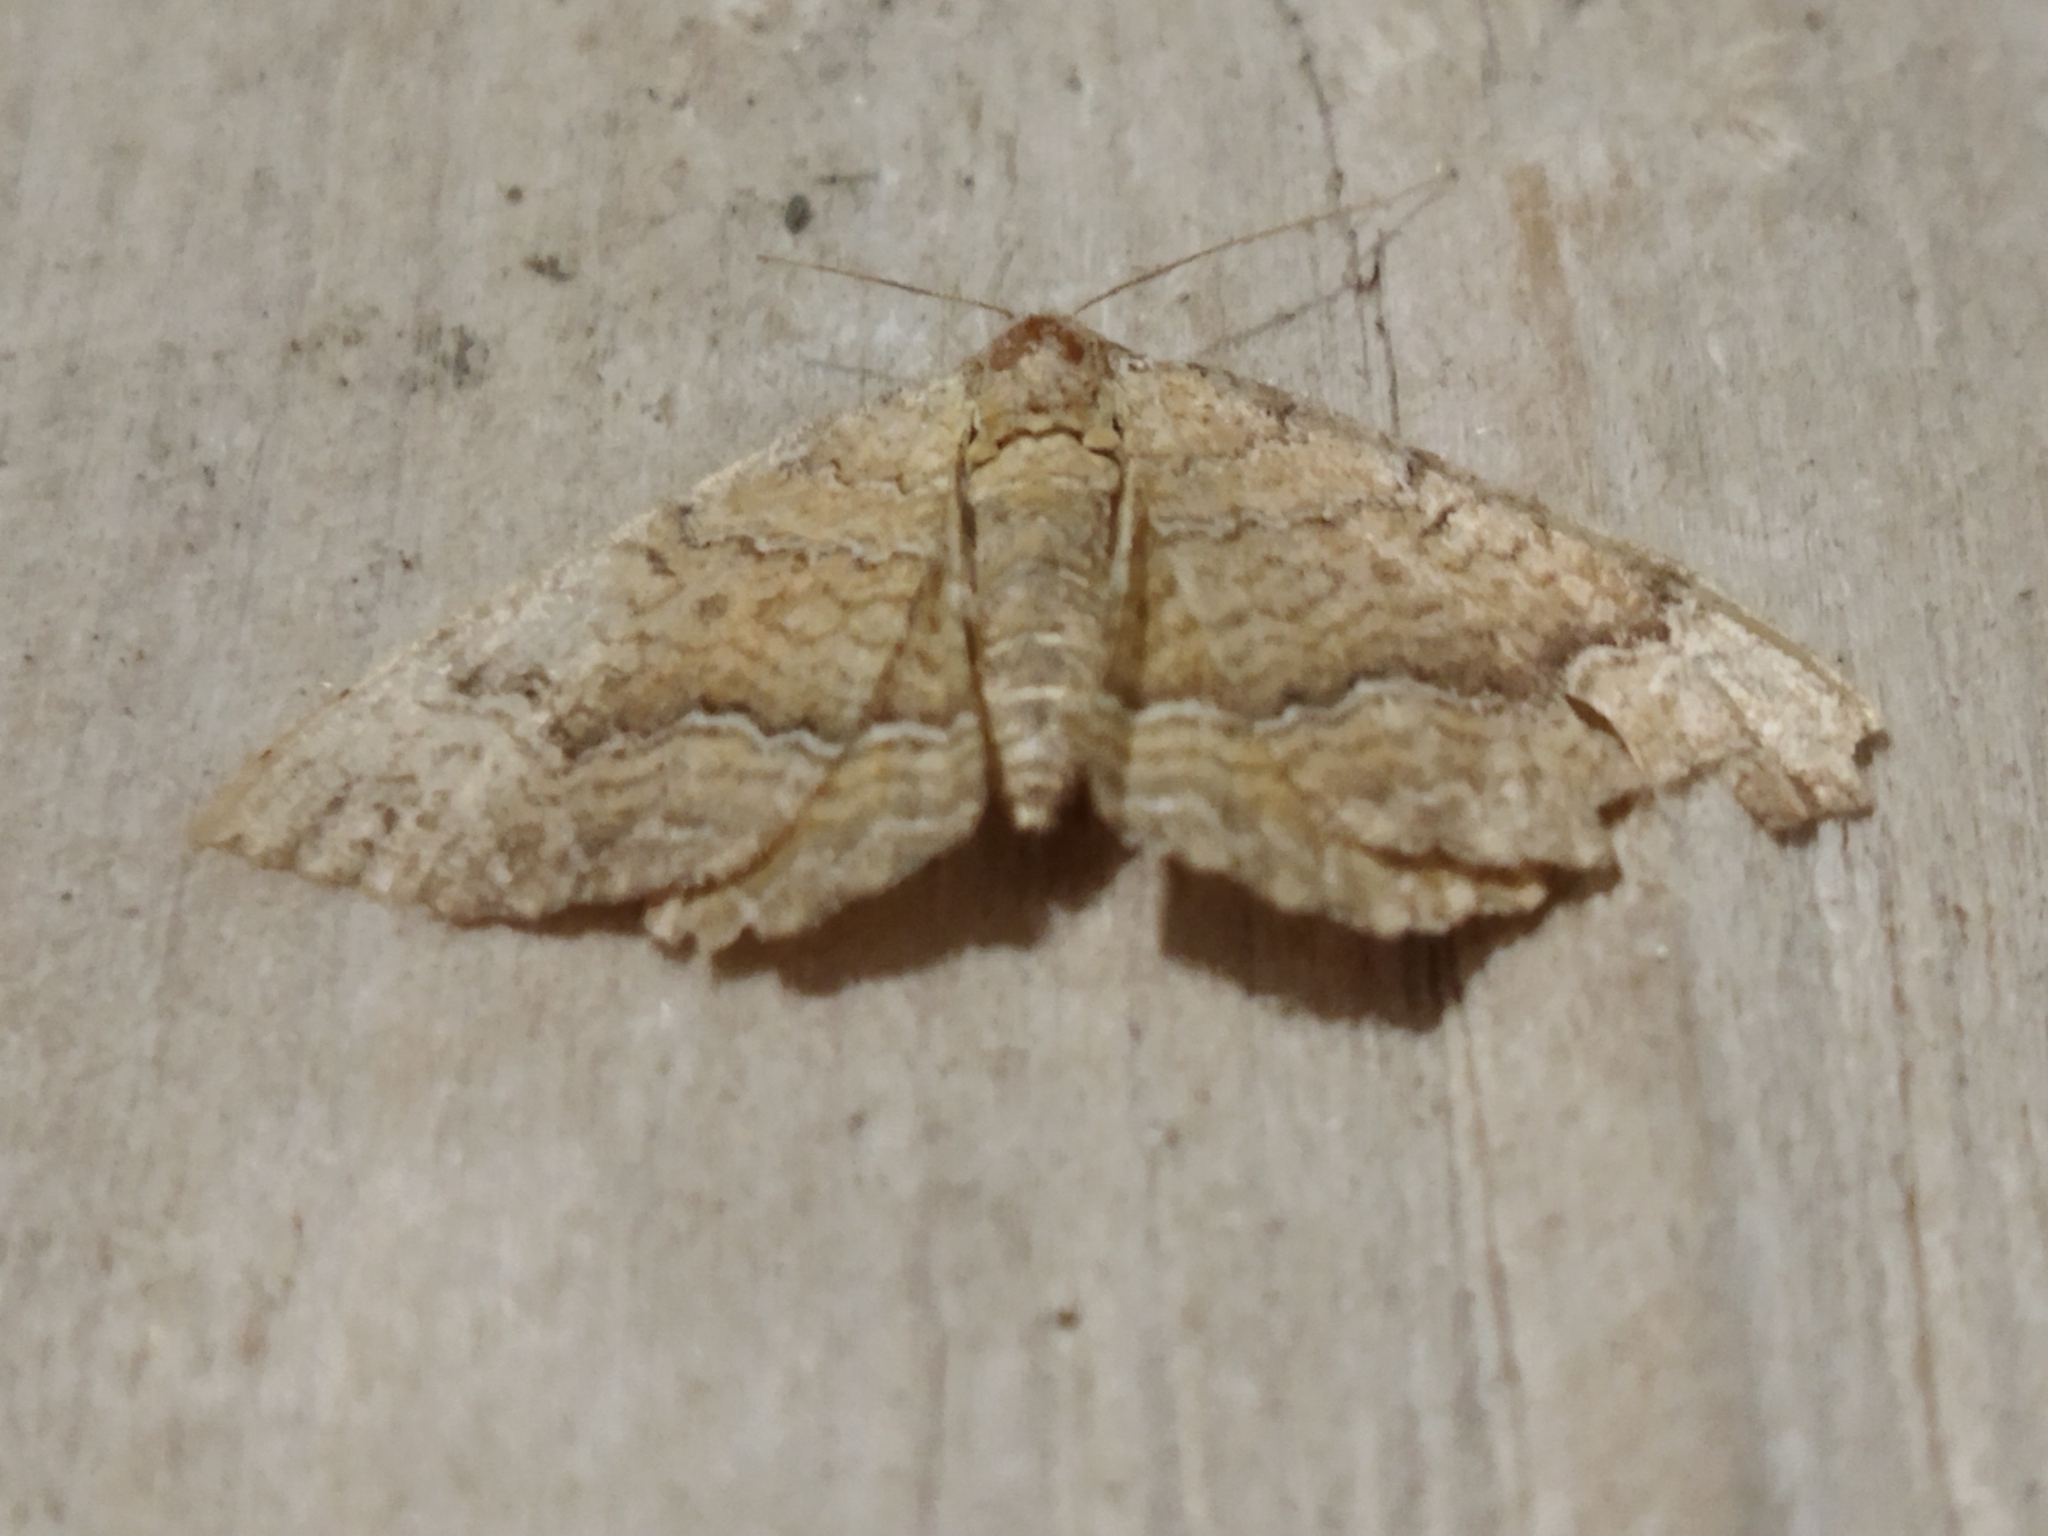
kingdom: Animalia
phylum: Arthropoda
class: Insecta
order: Lepidoptera
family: Geometridae
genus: Camptogramma
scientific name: Camptogramma bilineata
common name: Yellow shell
